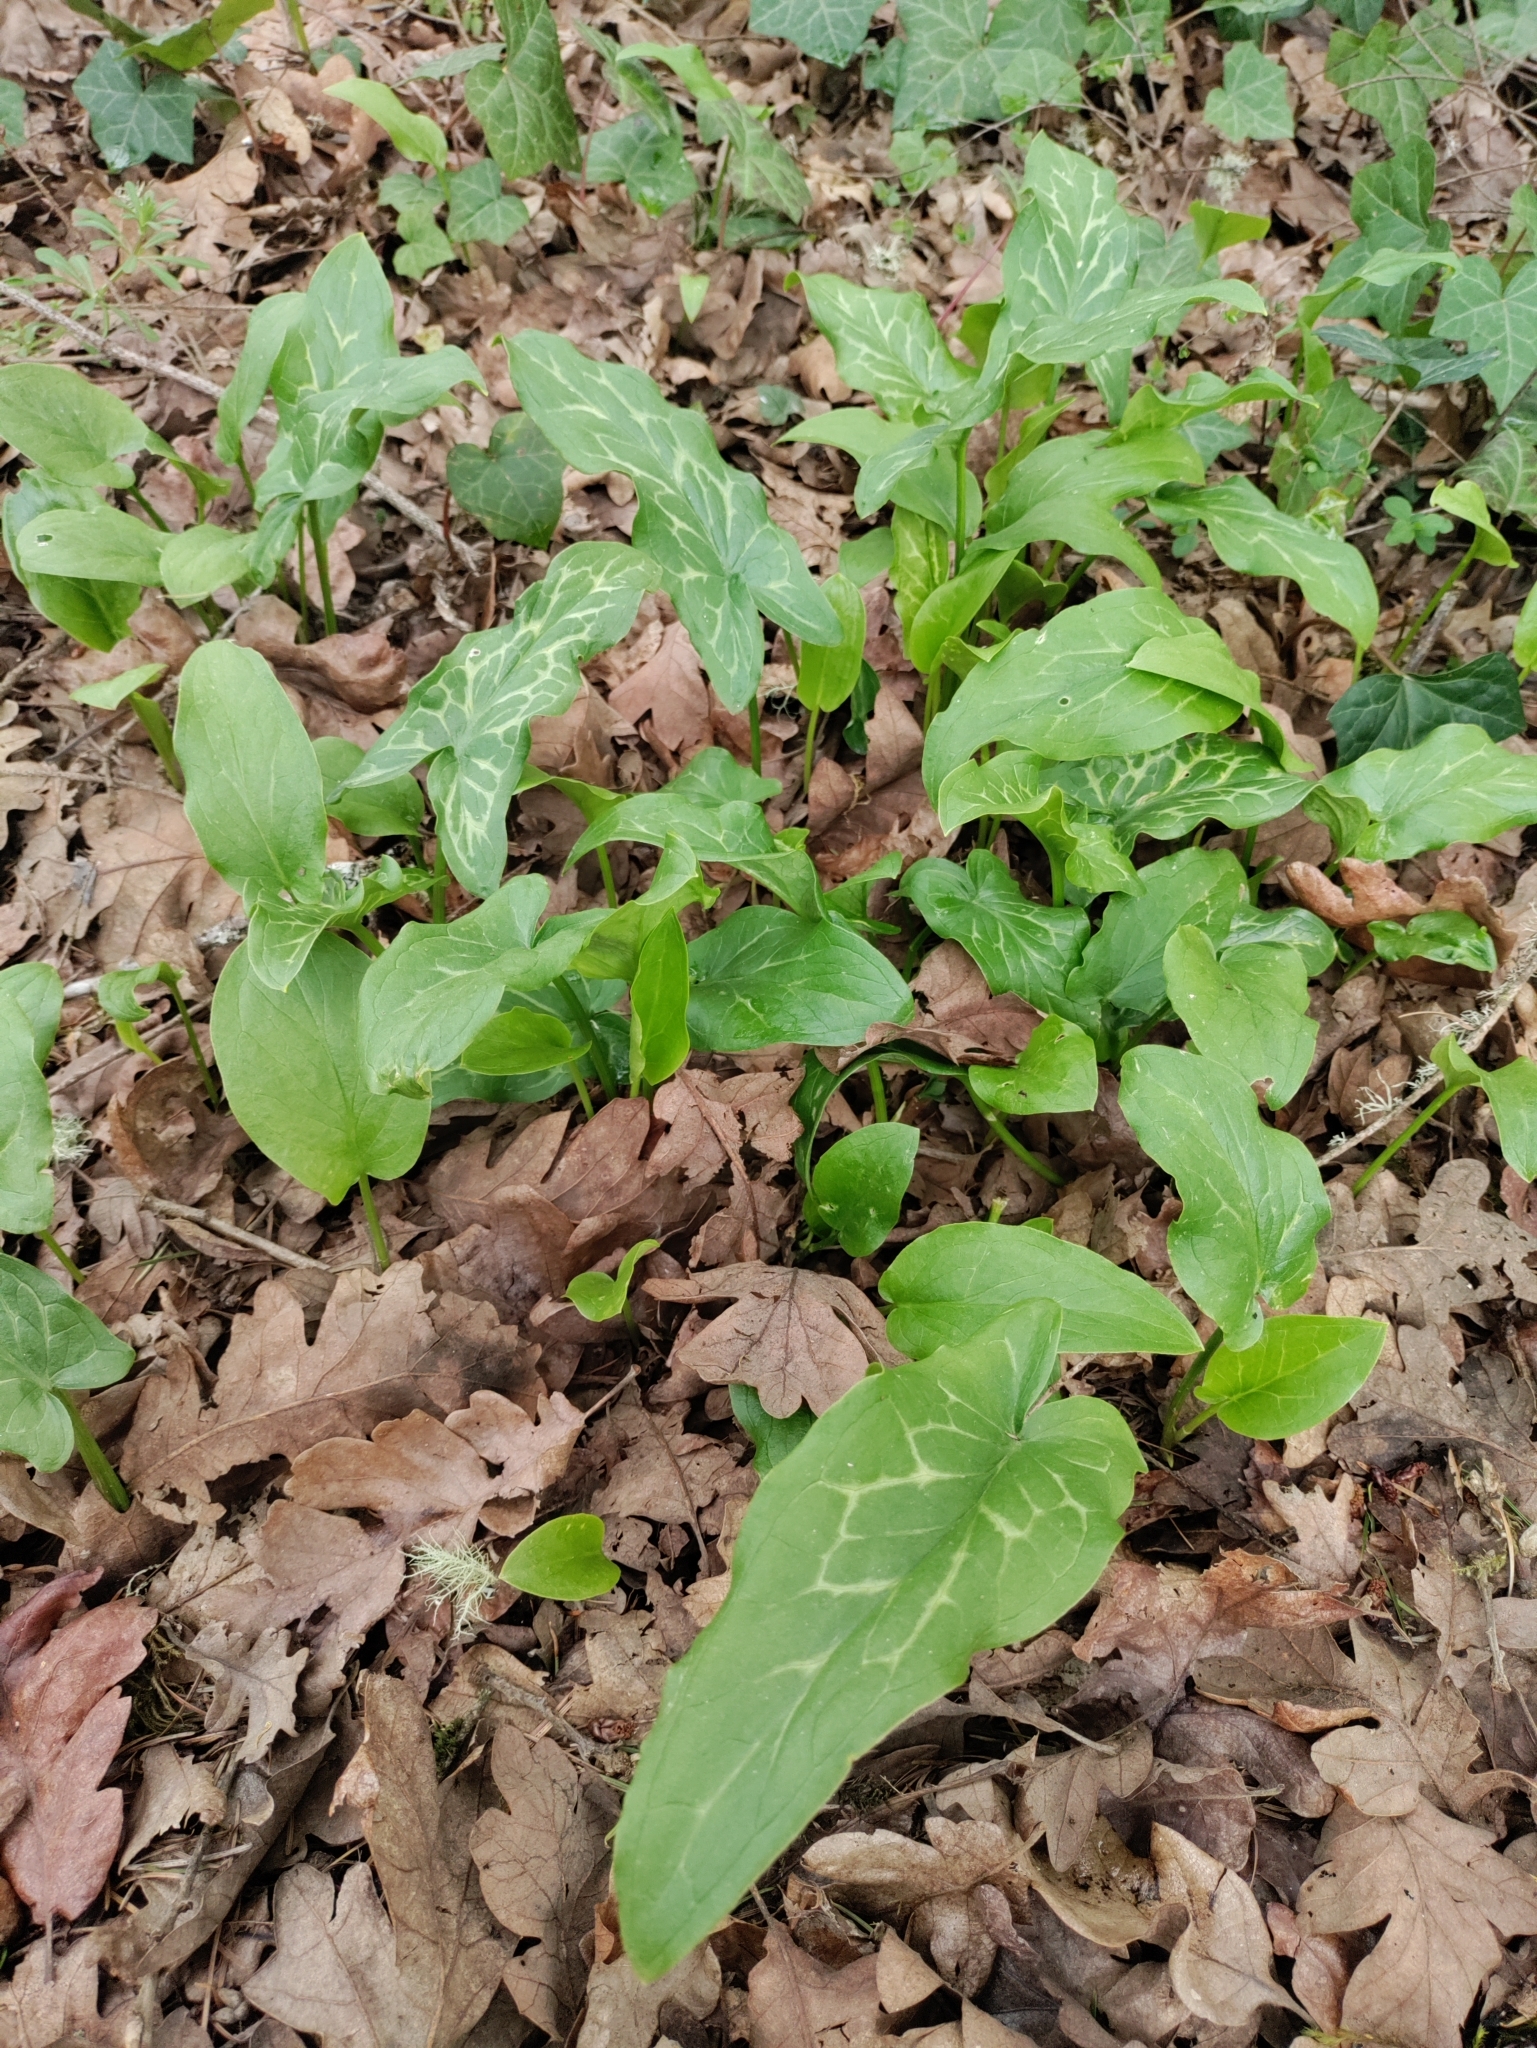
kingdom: Plantae
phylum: Tracheophyta
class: Liliopsida
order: Alismatales
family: Araceae
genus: Arum
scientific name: Arum italicum
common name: Italian lords-and-ladies
